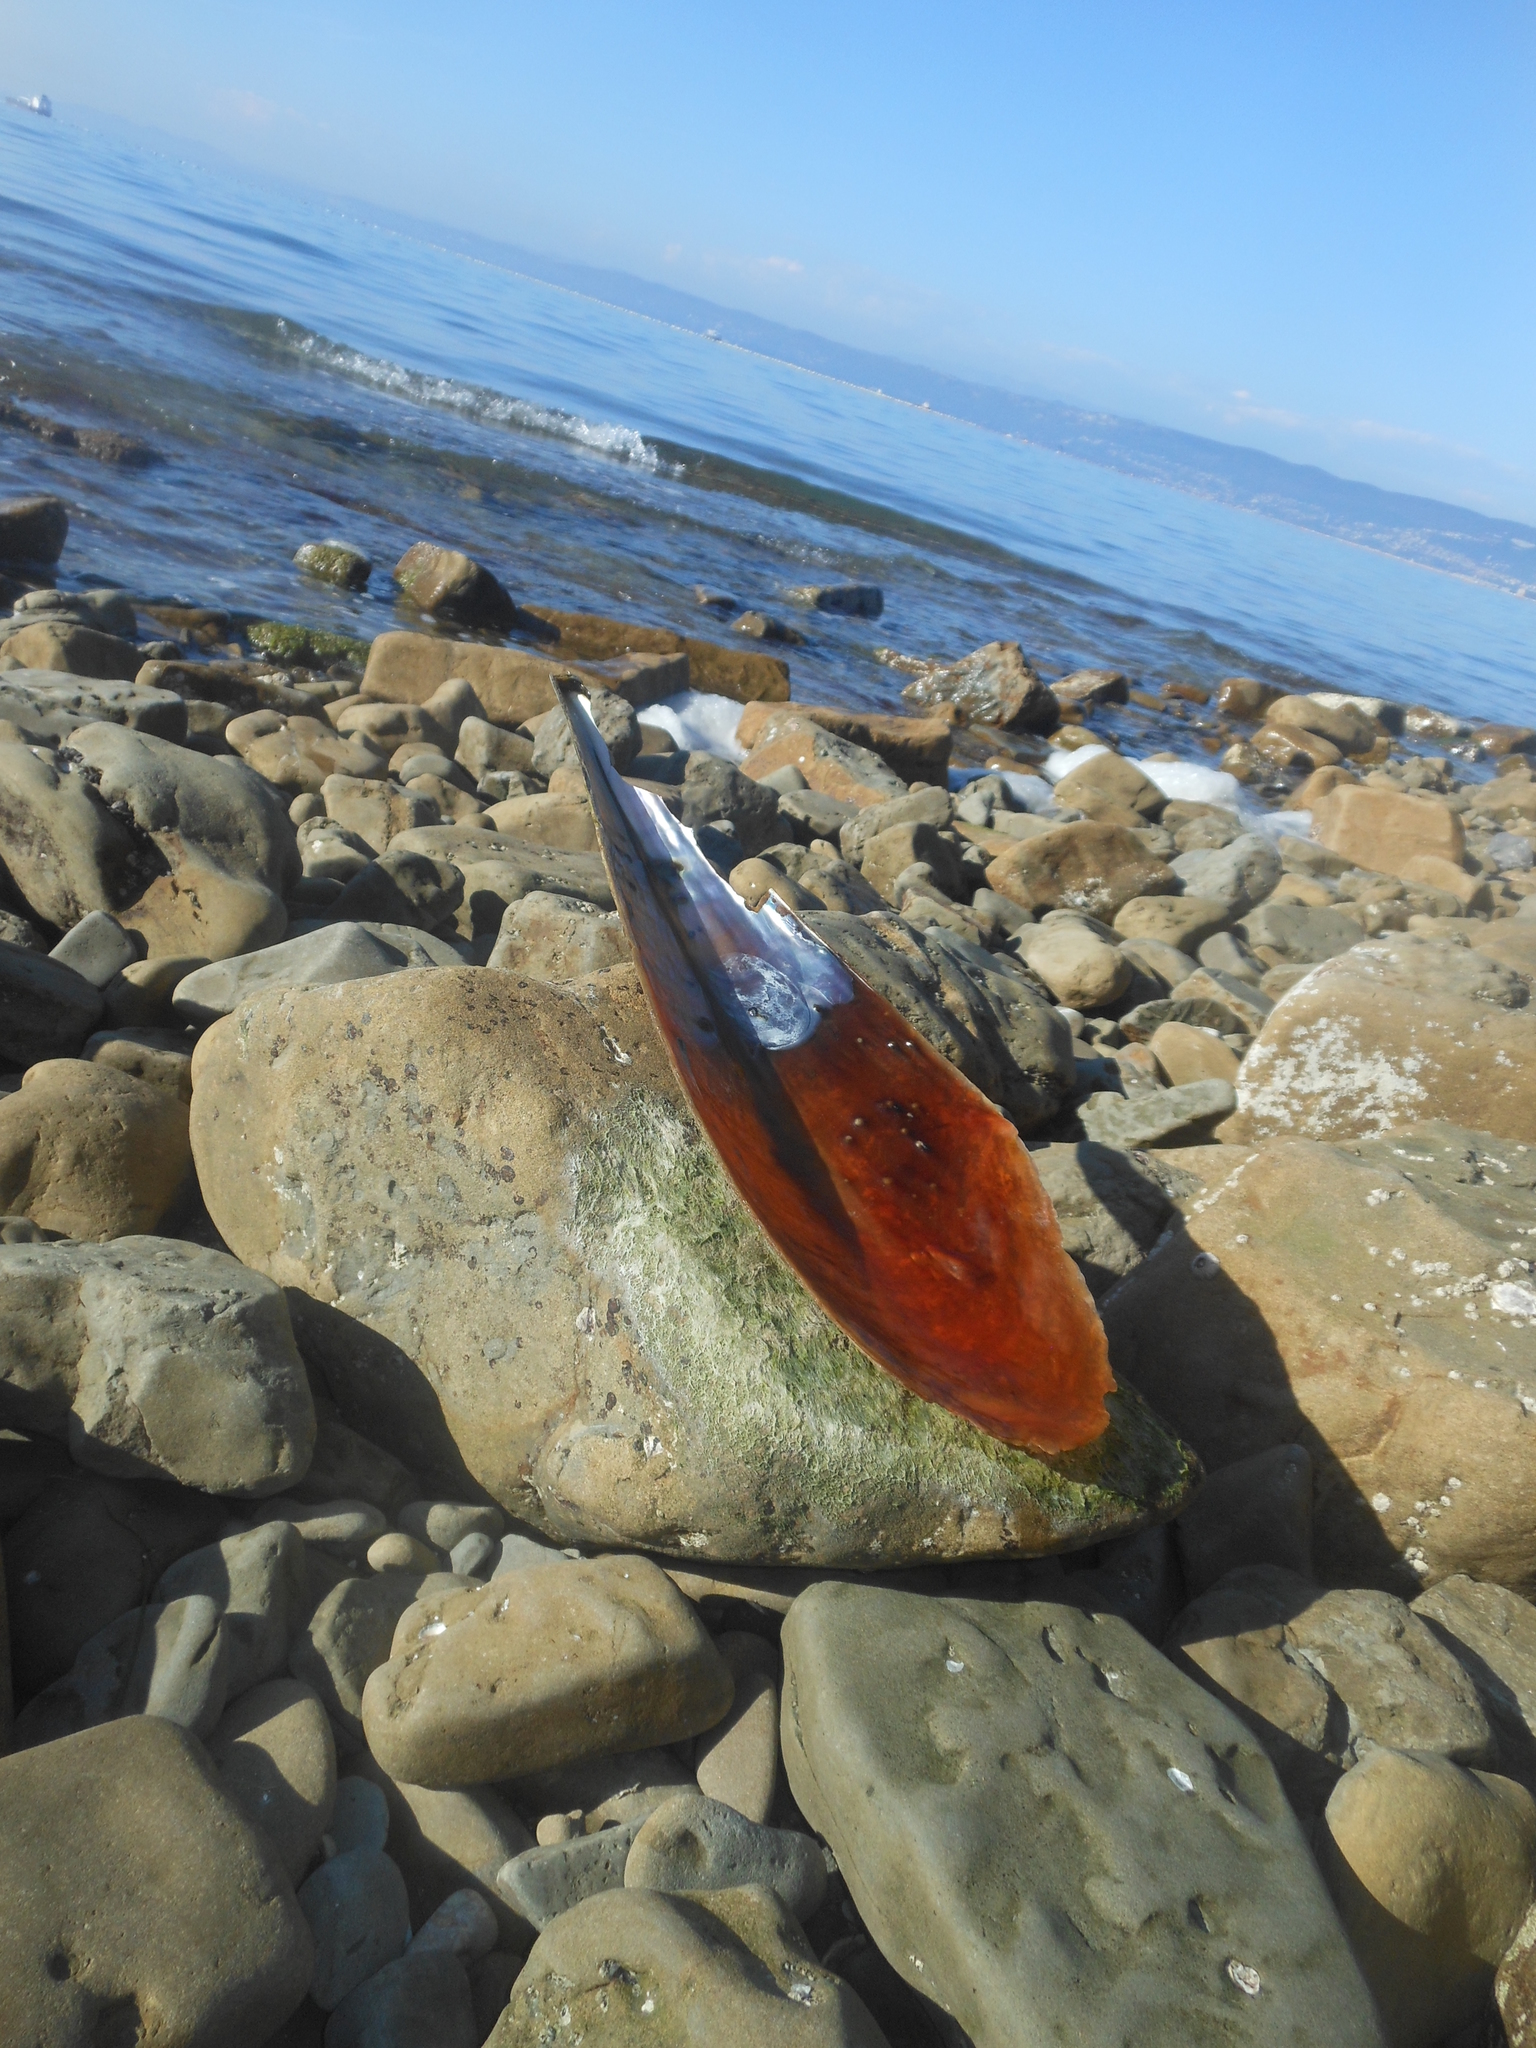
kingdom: Animalia
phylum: Mollusca
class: Bivalvia
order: Ostreida
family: Pinnidae
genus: Pinna
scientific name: Pinna nobilis
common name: Fan mussel
